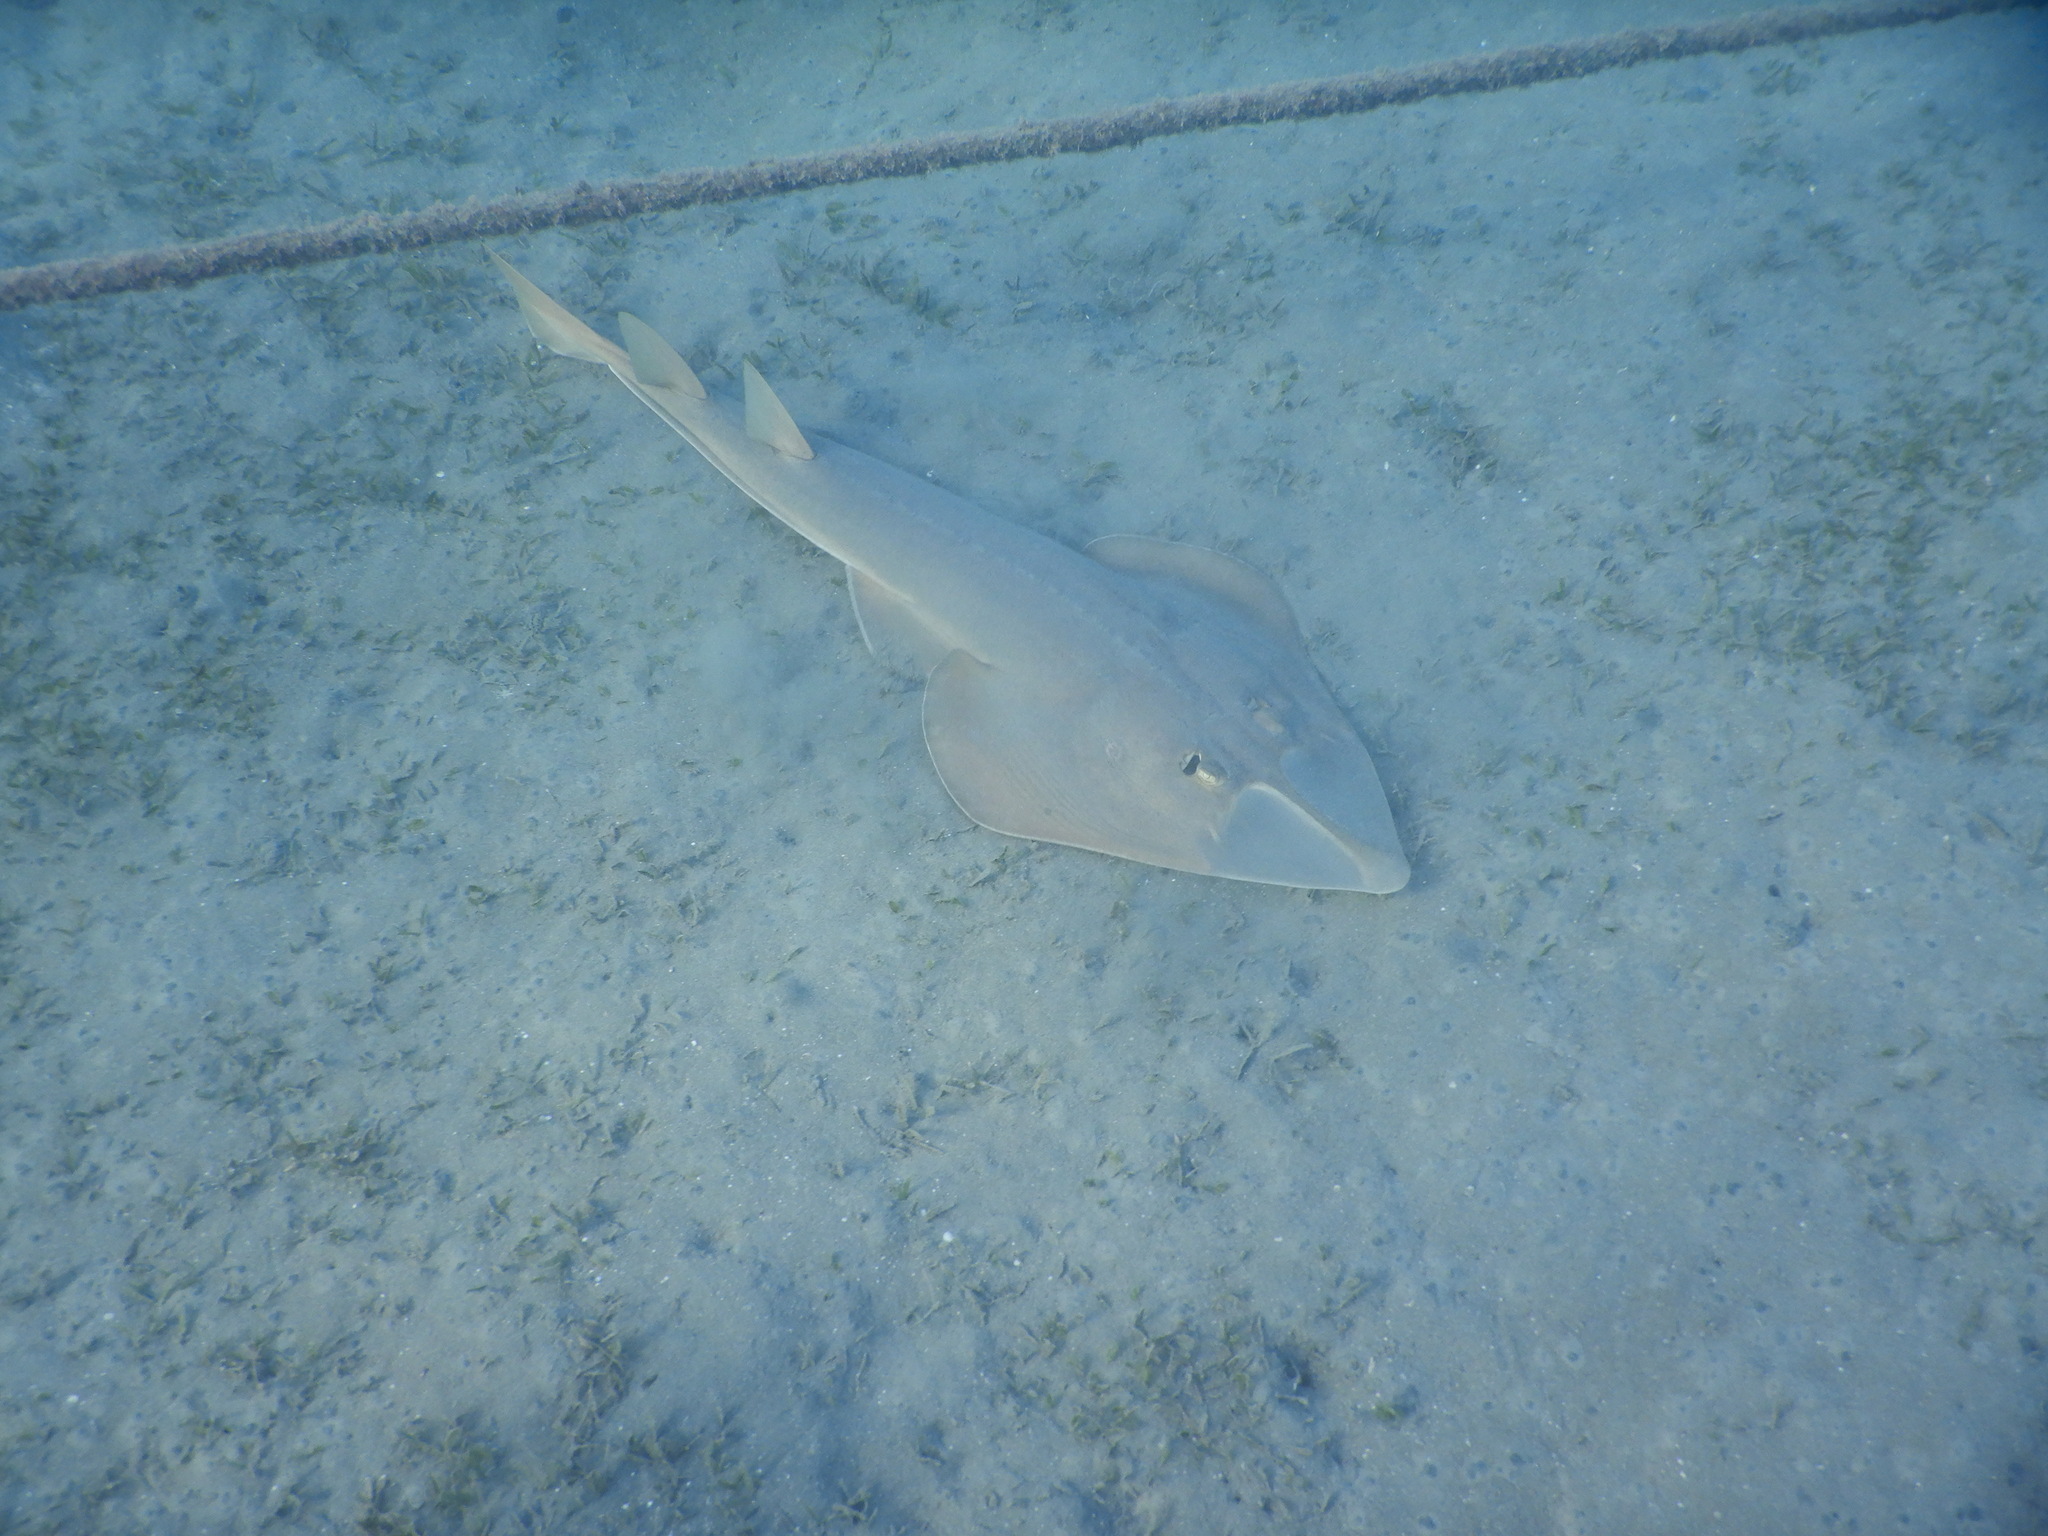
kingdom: Animalia
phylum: Chordata
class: Elasmobranchii
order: Rhinopristiformes
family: Glaucostegidae
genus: Glaucostegus
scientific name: Glaucostegus halavi
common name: Halavi guitarfish
